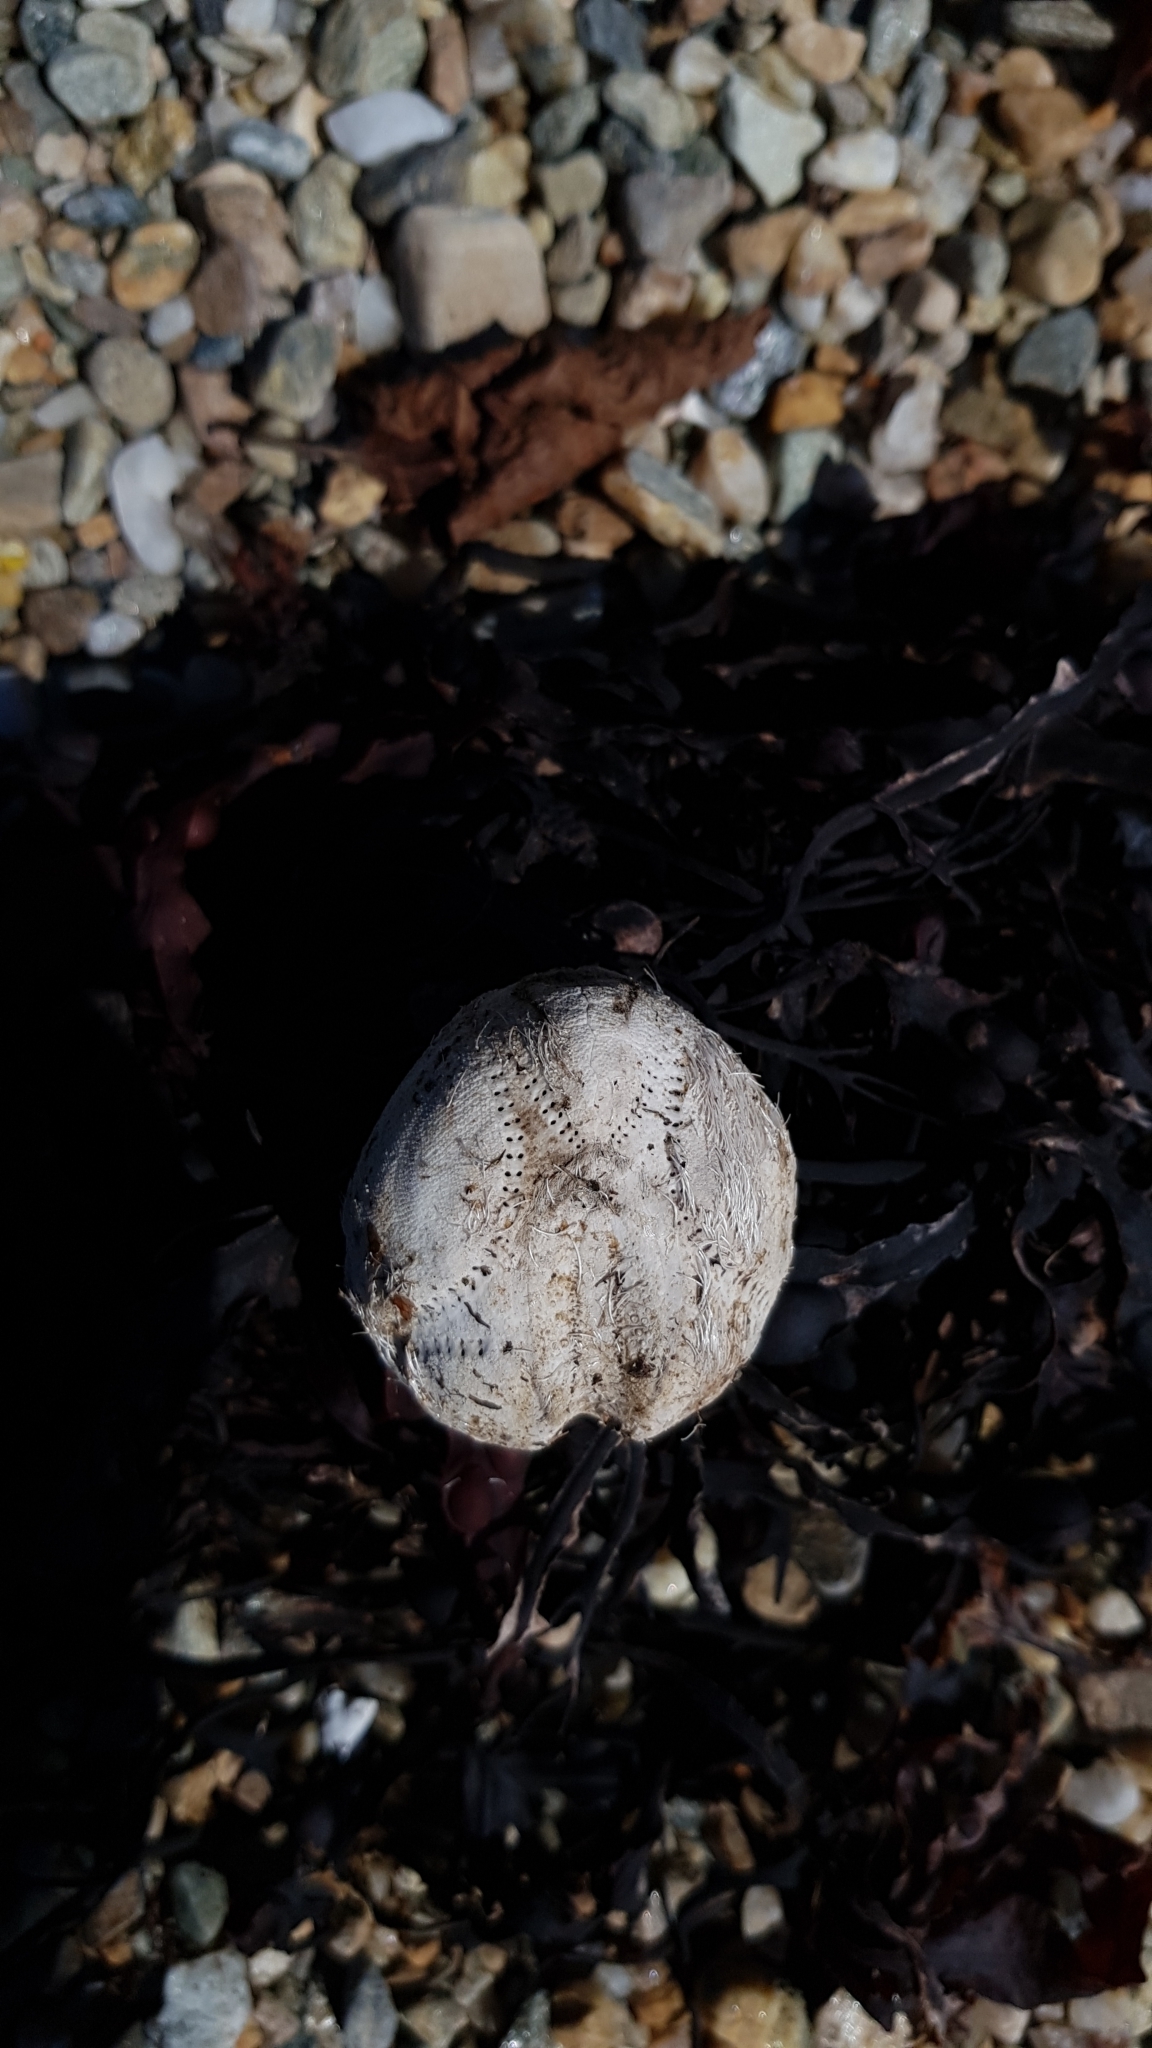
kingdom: Animalia
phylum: Echinodermata
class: Echinoidea
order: Spatangoida
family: Loveniidae
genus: Echinocardium
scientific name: Echinocardium cordatum
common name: Heart-urchin
